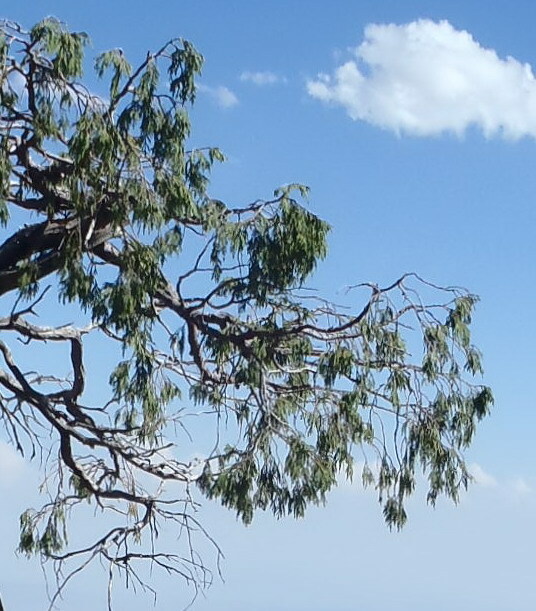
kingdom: Plantae
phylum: Tracheophyta
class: Pinopsida
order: Pinales
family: Cupressaceae
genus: Juniperus
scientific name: Juniperus flaccida
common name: Drooping juniper
